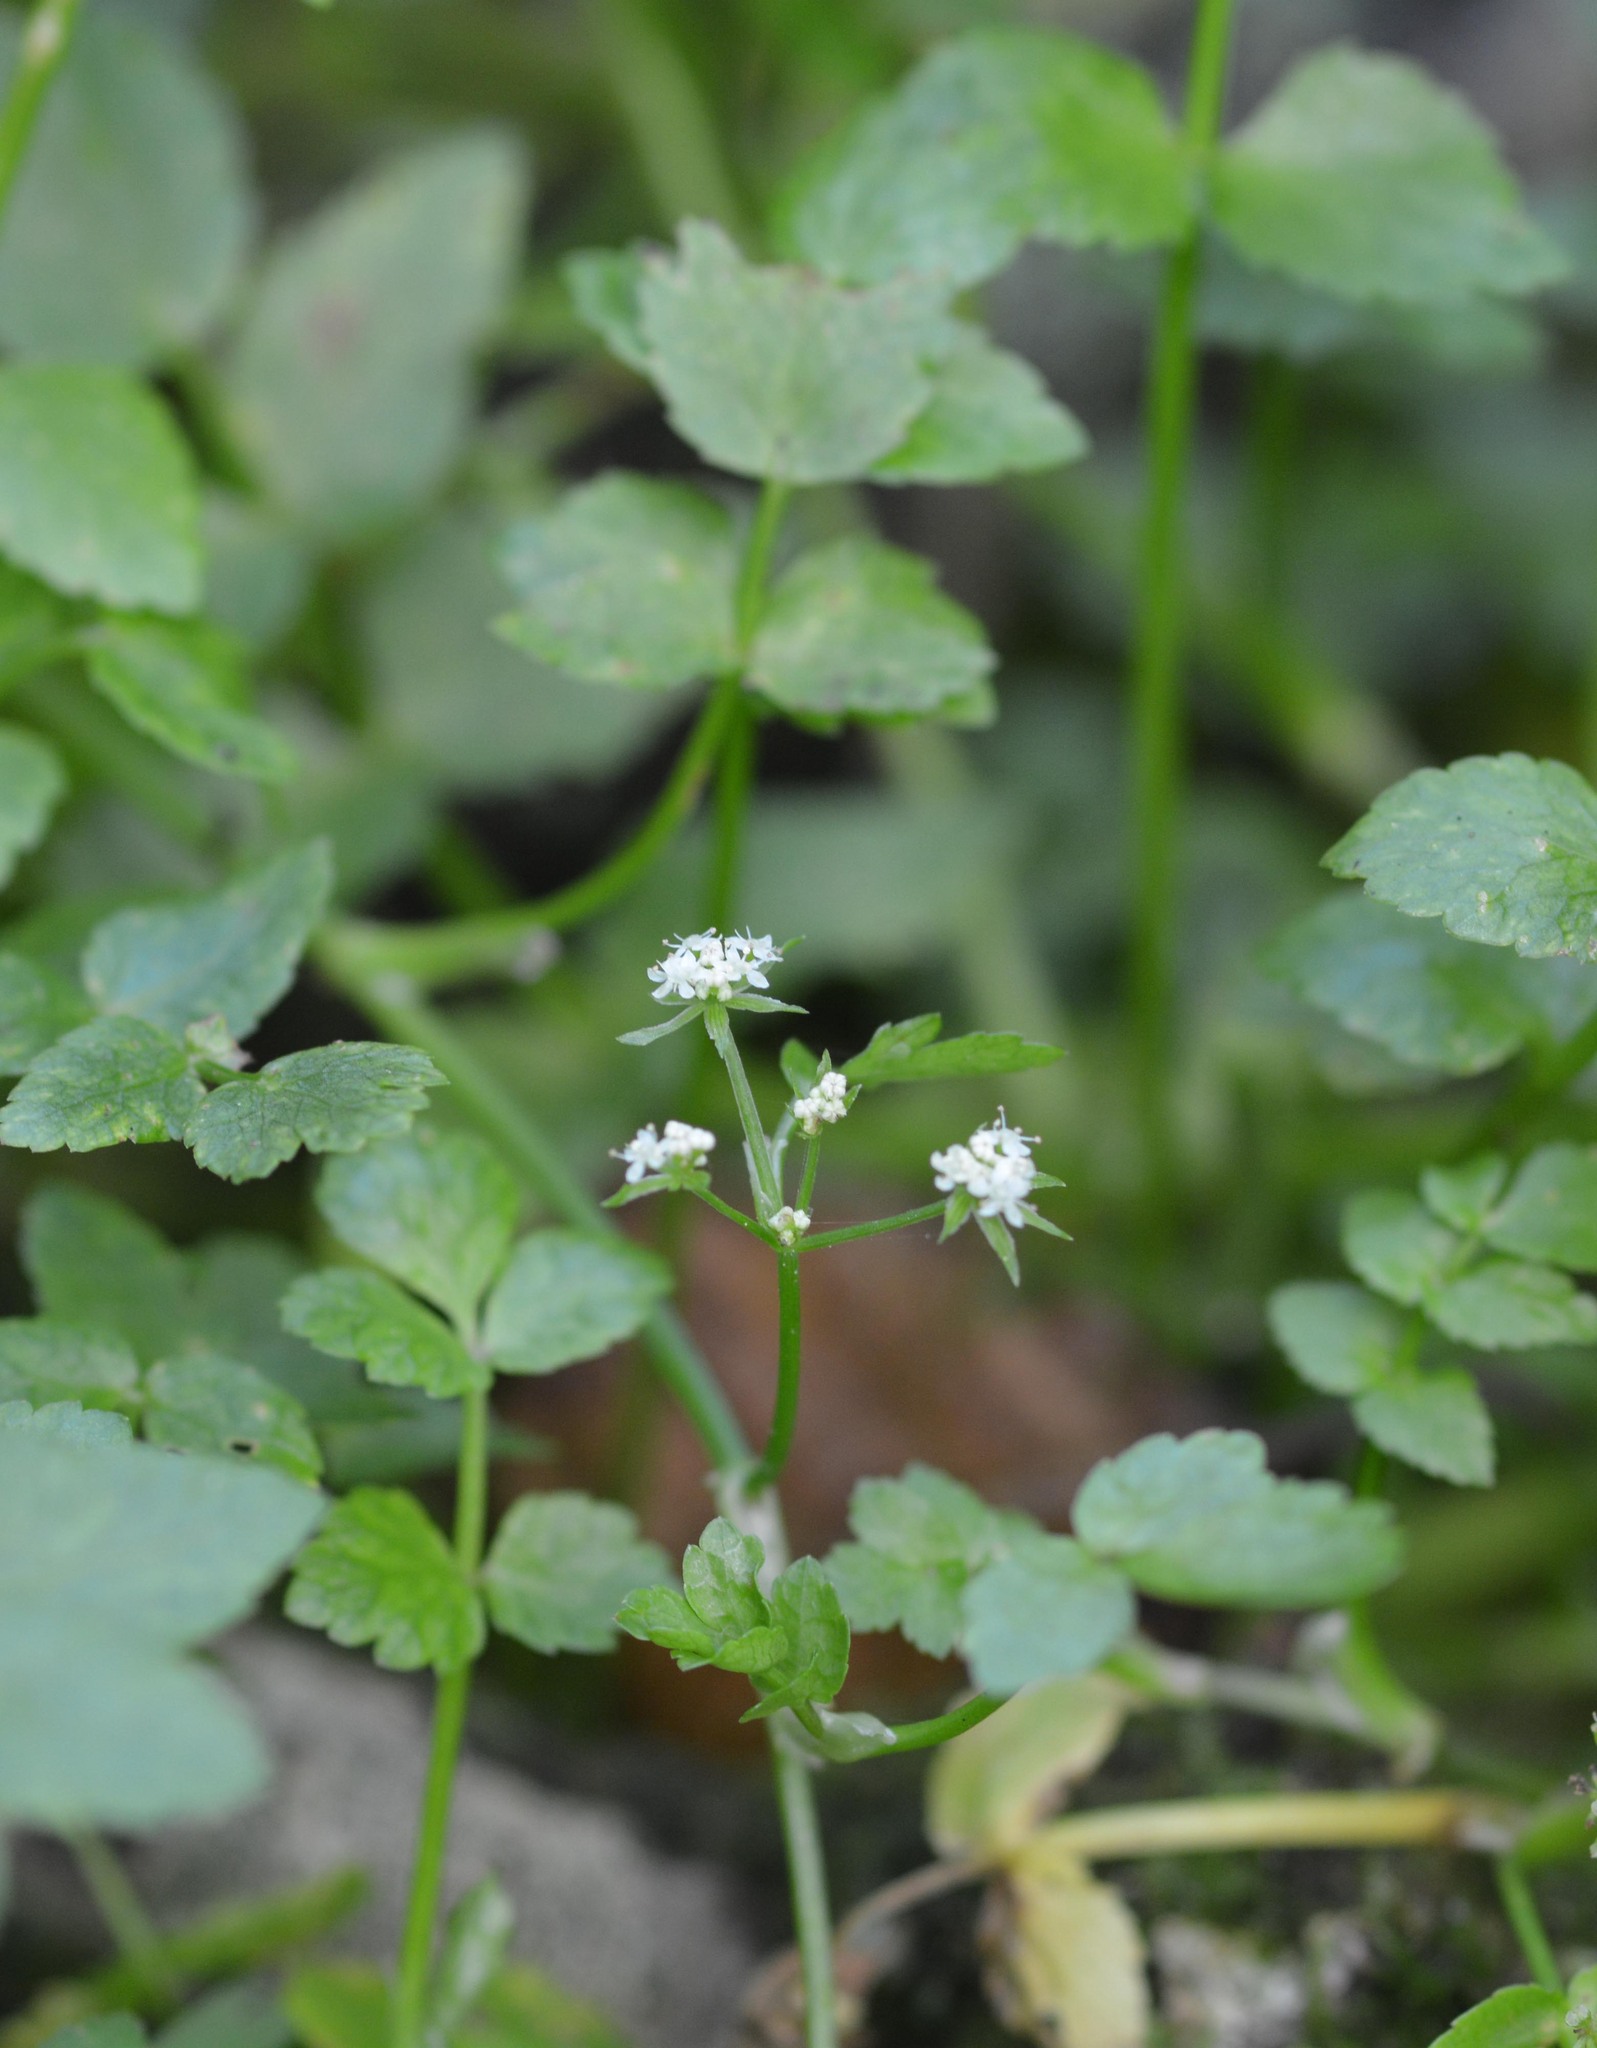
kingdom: Plantae
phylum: Tracheophyta
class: Magnoliopsida
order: Apiales
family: Apiaceae
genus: Helosciadium
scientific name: Helosciadium nodiflorum
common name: Fool's-watercress
